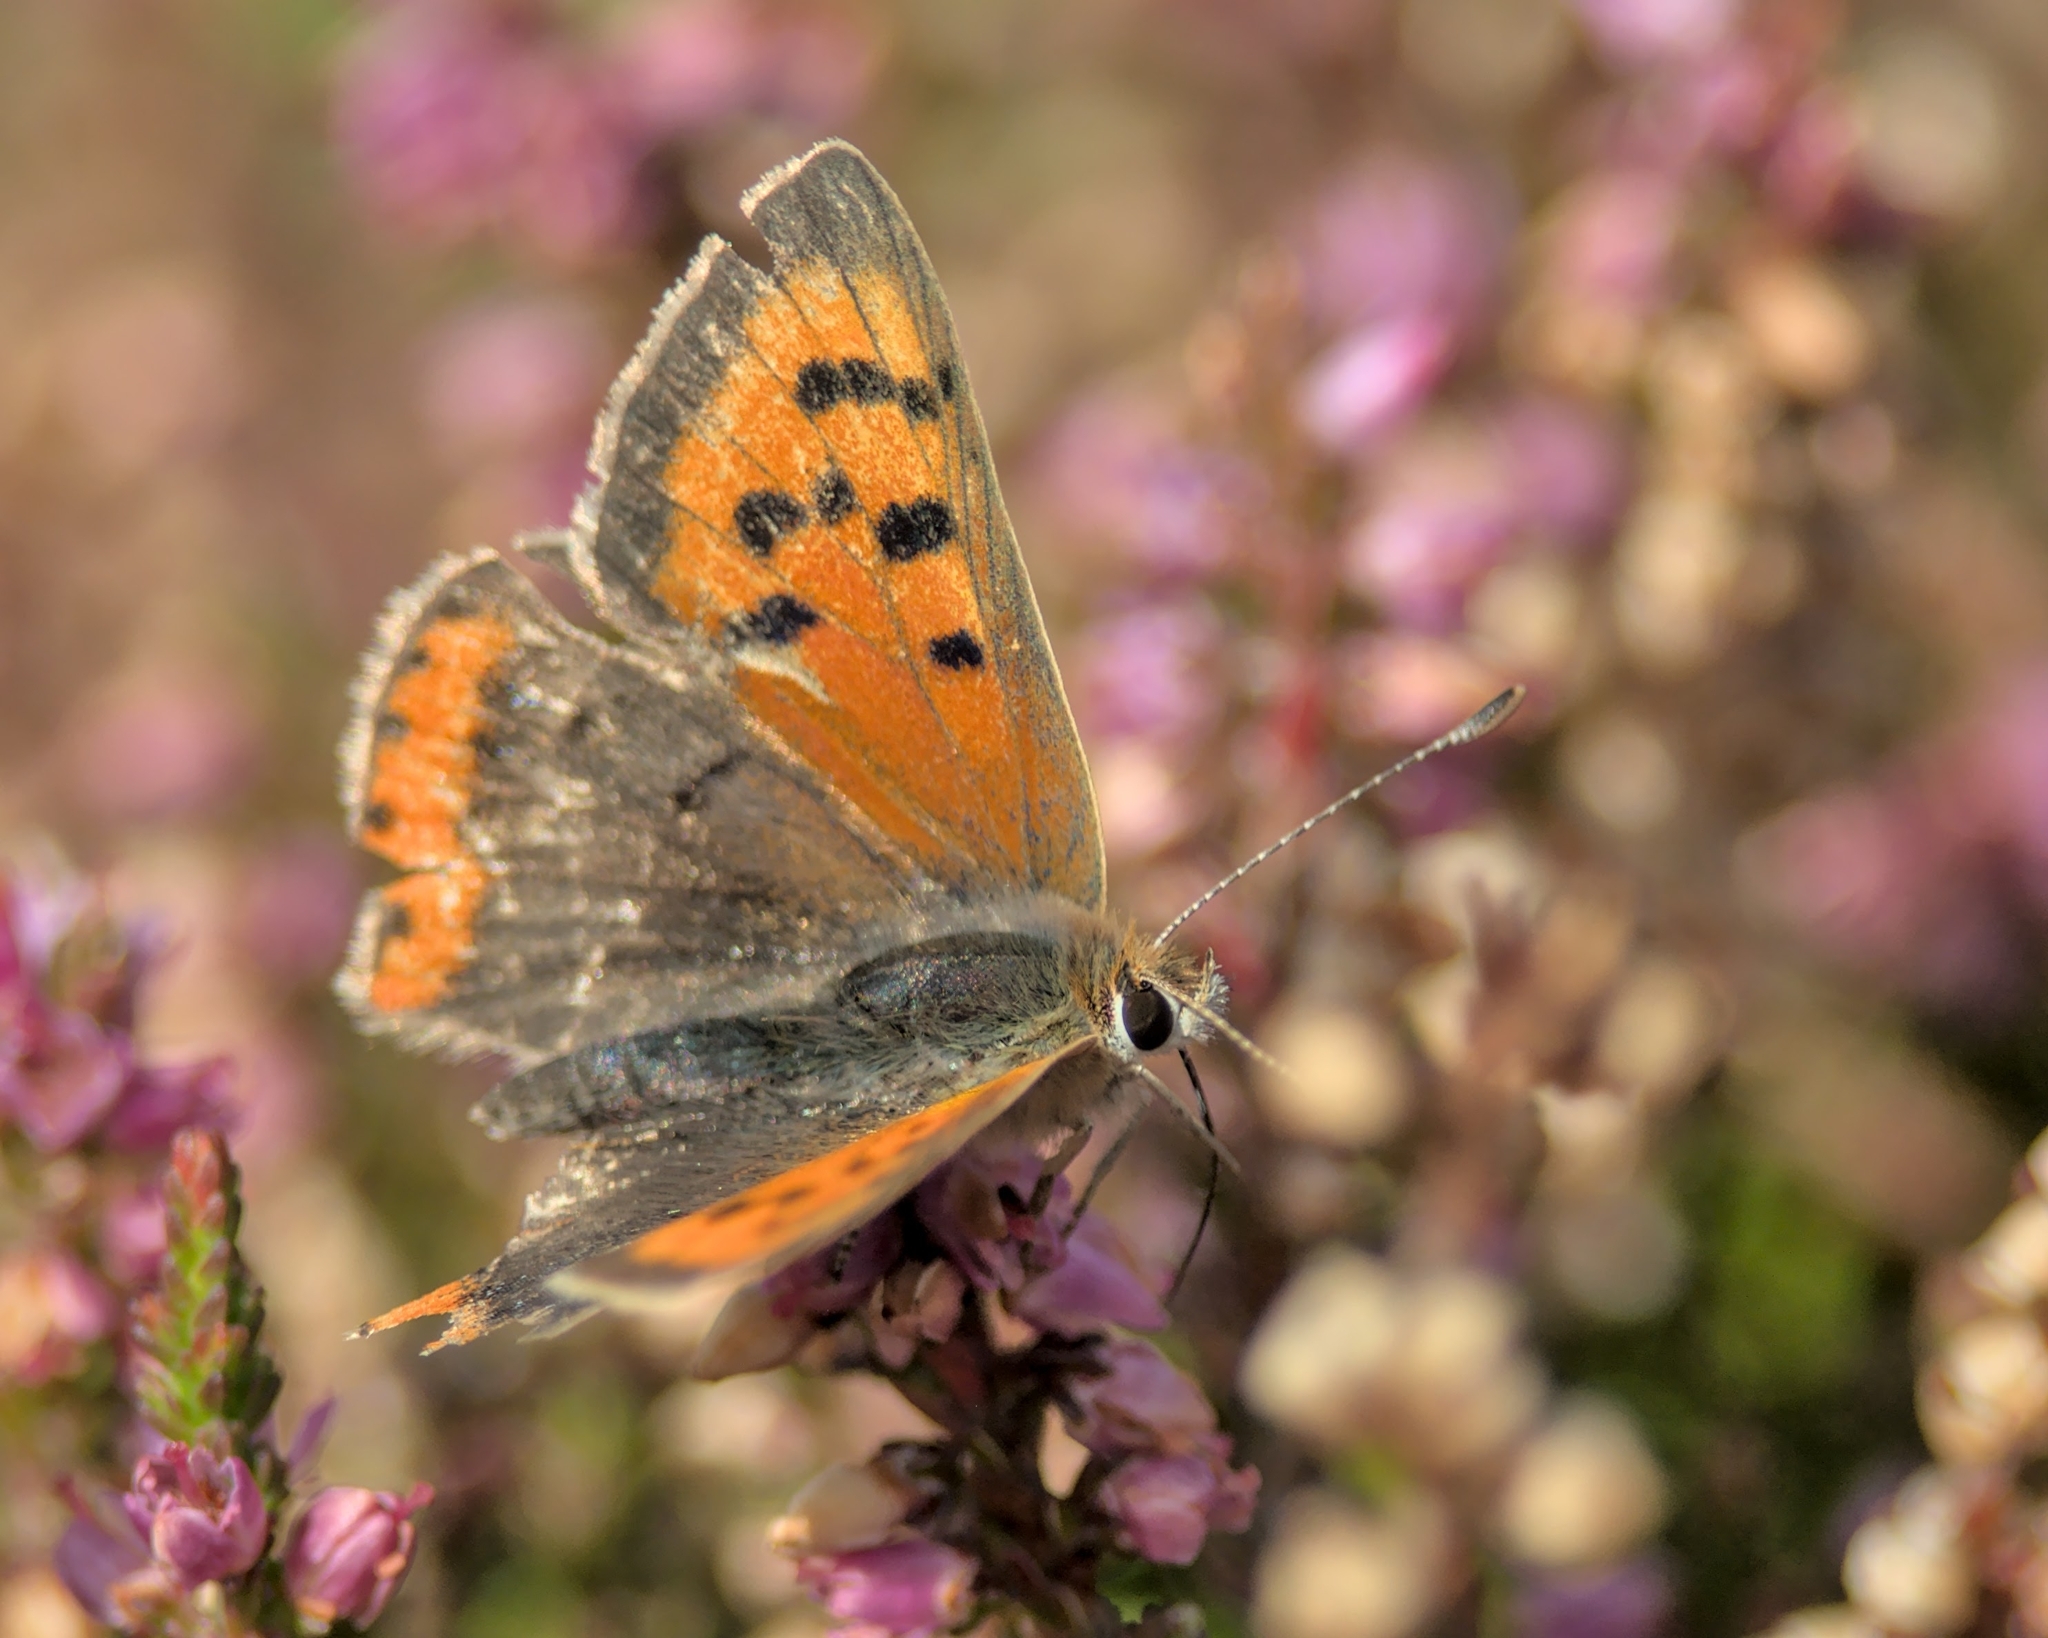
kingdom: Animalia
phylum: Arthropoda
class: Insecta
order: Lepidoptera
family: Lycaenidae
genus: Lycaena
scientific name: Lycaena phlaeas
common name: Small copper
